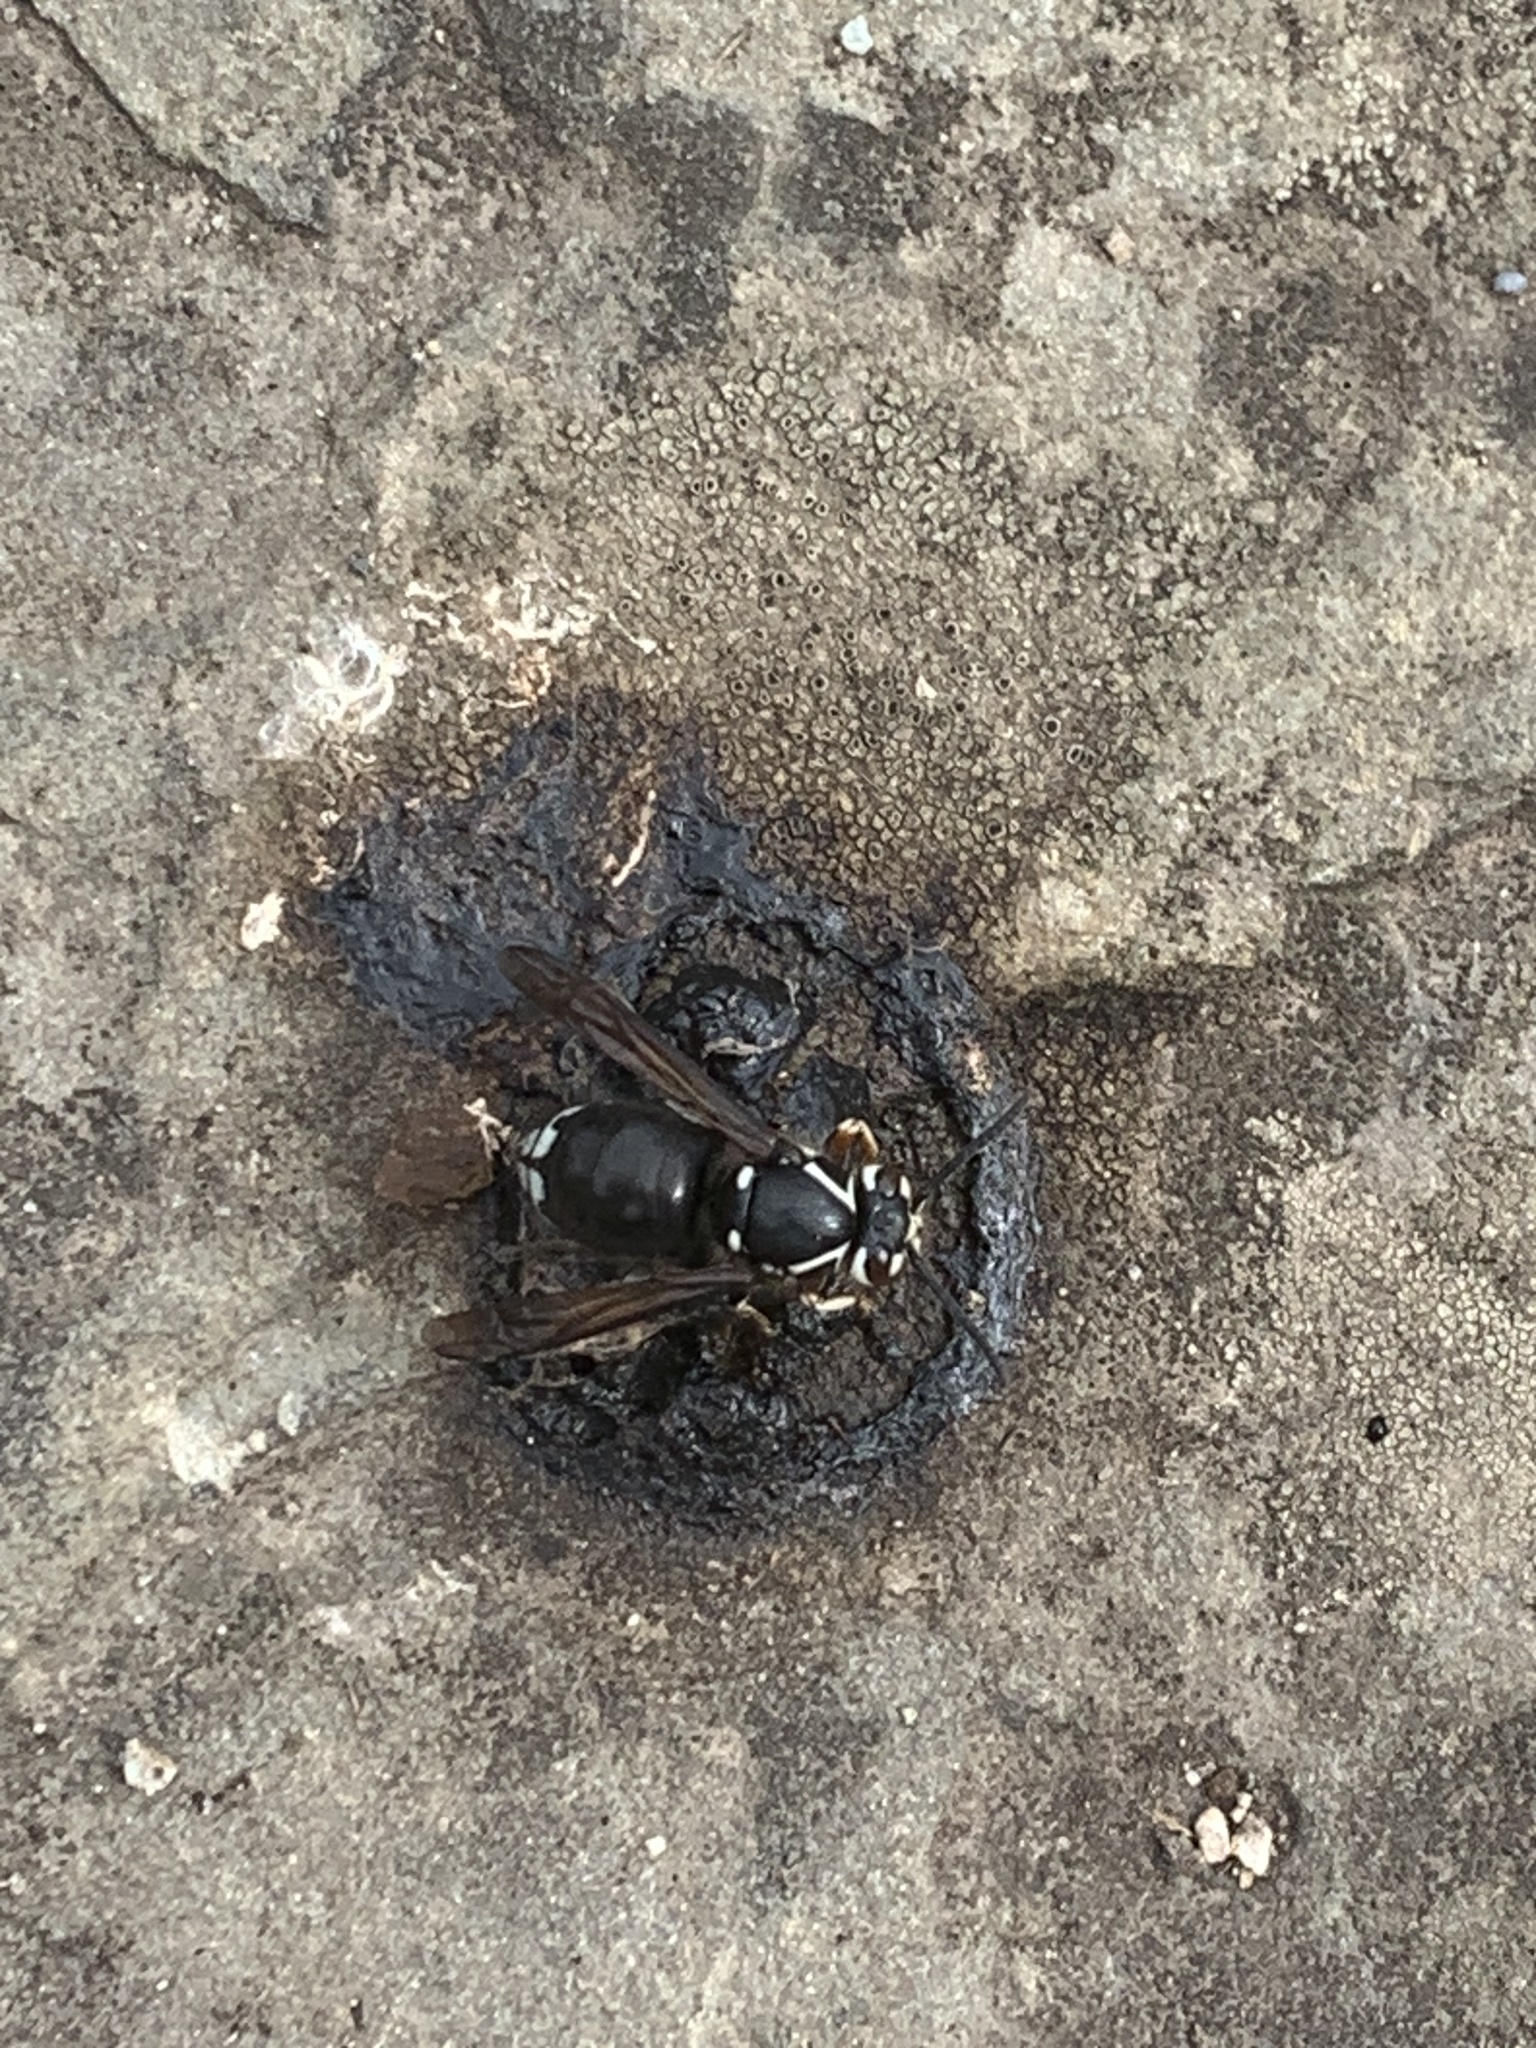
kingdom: Animalia
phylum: Arthropoda
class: Insecta
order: Hymenoptera
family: Vespidae
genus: Dolichovespula
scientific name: Dolichovespula maculata
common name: Bald-faced hornet
